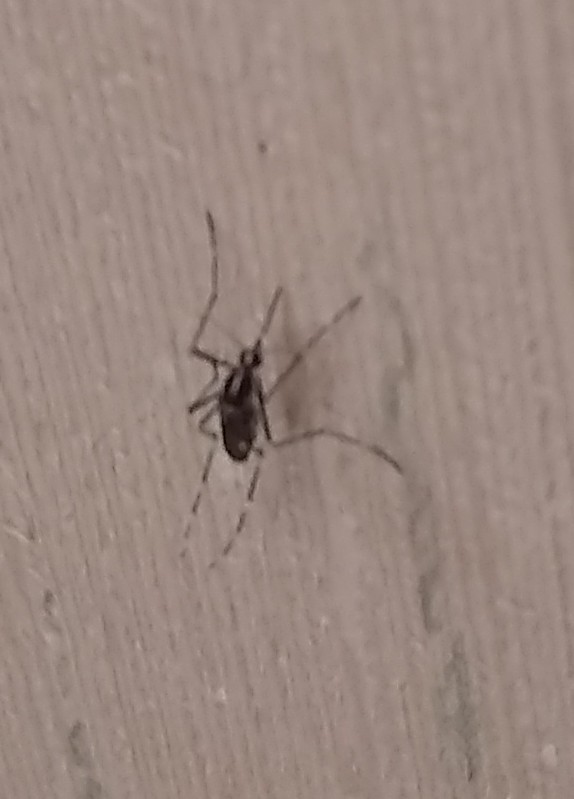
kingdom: Animalia
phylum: Arthropoda
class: Insecta
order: Diptera
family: Culicidae
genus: Aedes
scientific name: Aedes albopictus
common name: Tiger mosquito
